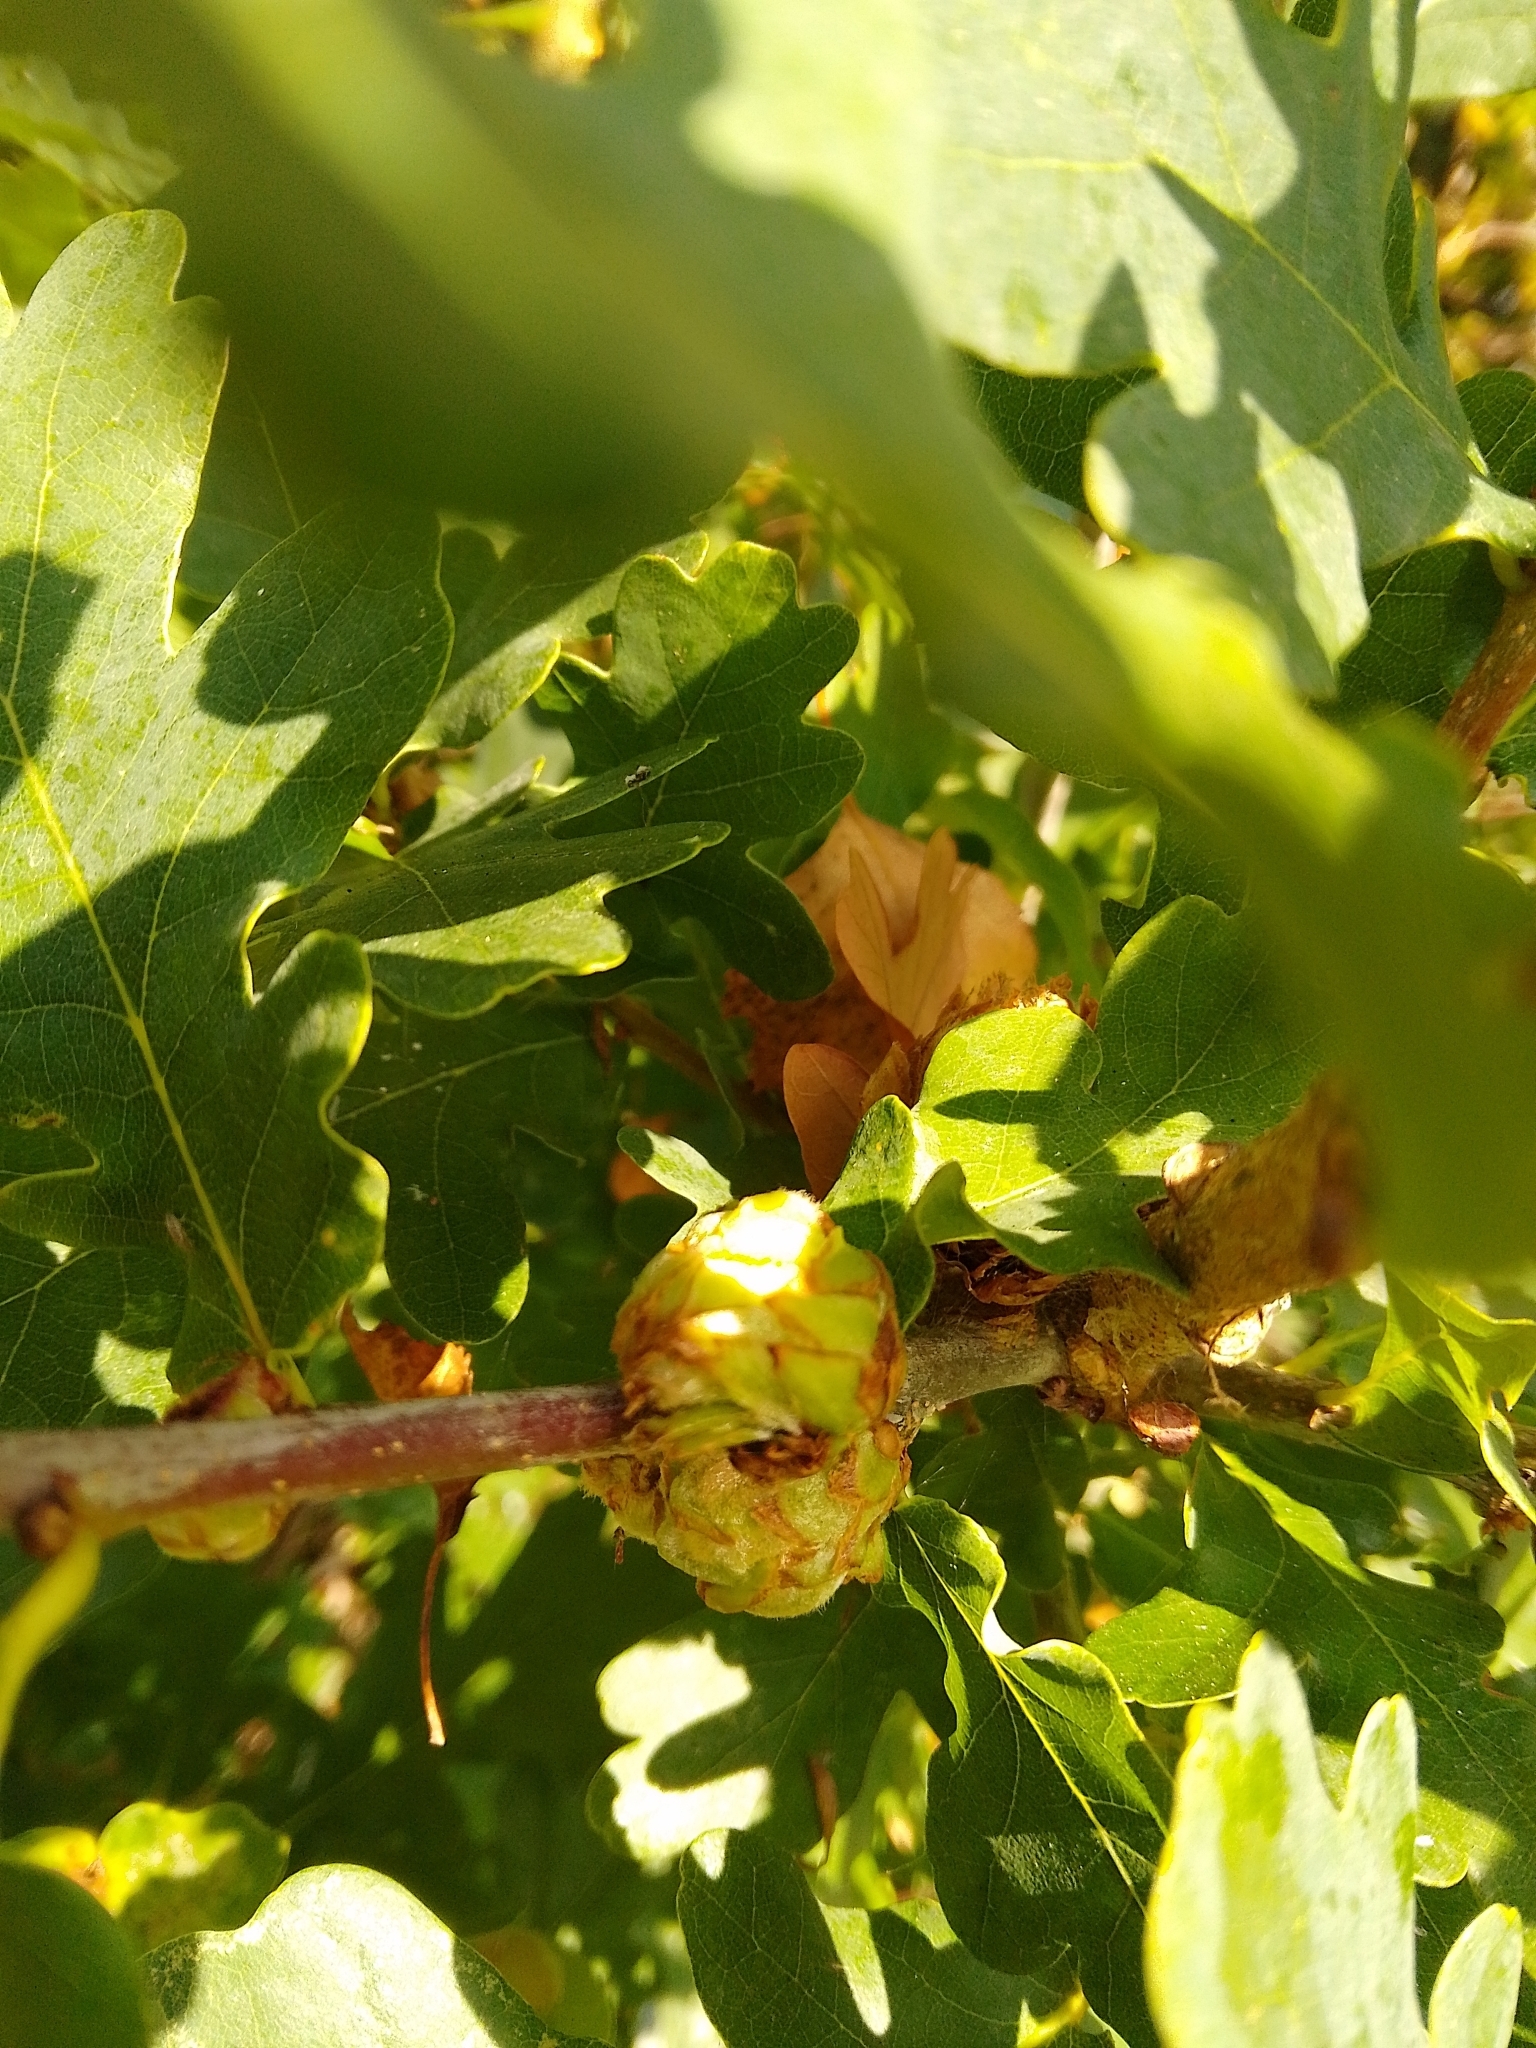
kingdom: Animalia
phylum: Arthropoda
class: Insecta
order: Hymenoptera
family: Cynipidae
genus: Andricus
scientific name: Andricus foecundatrix
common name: Artichoke gall
